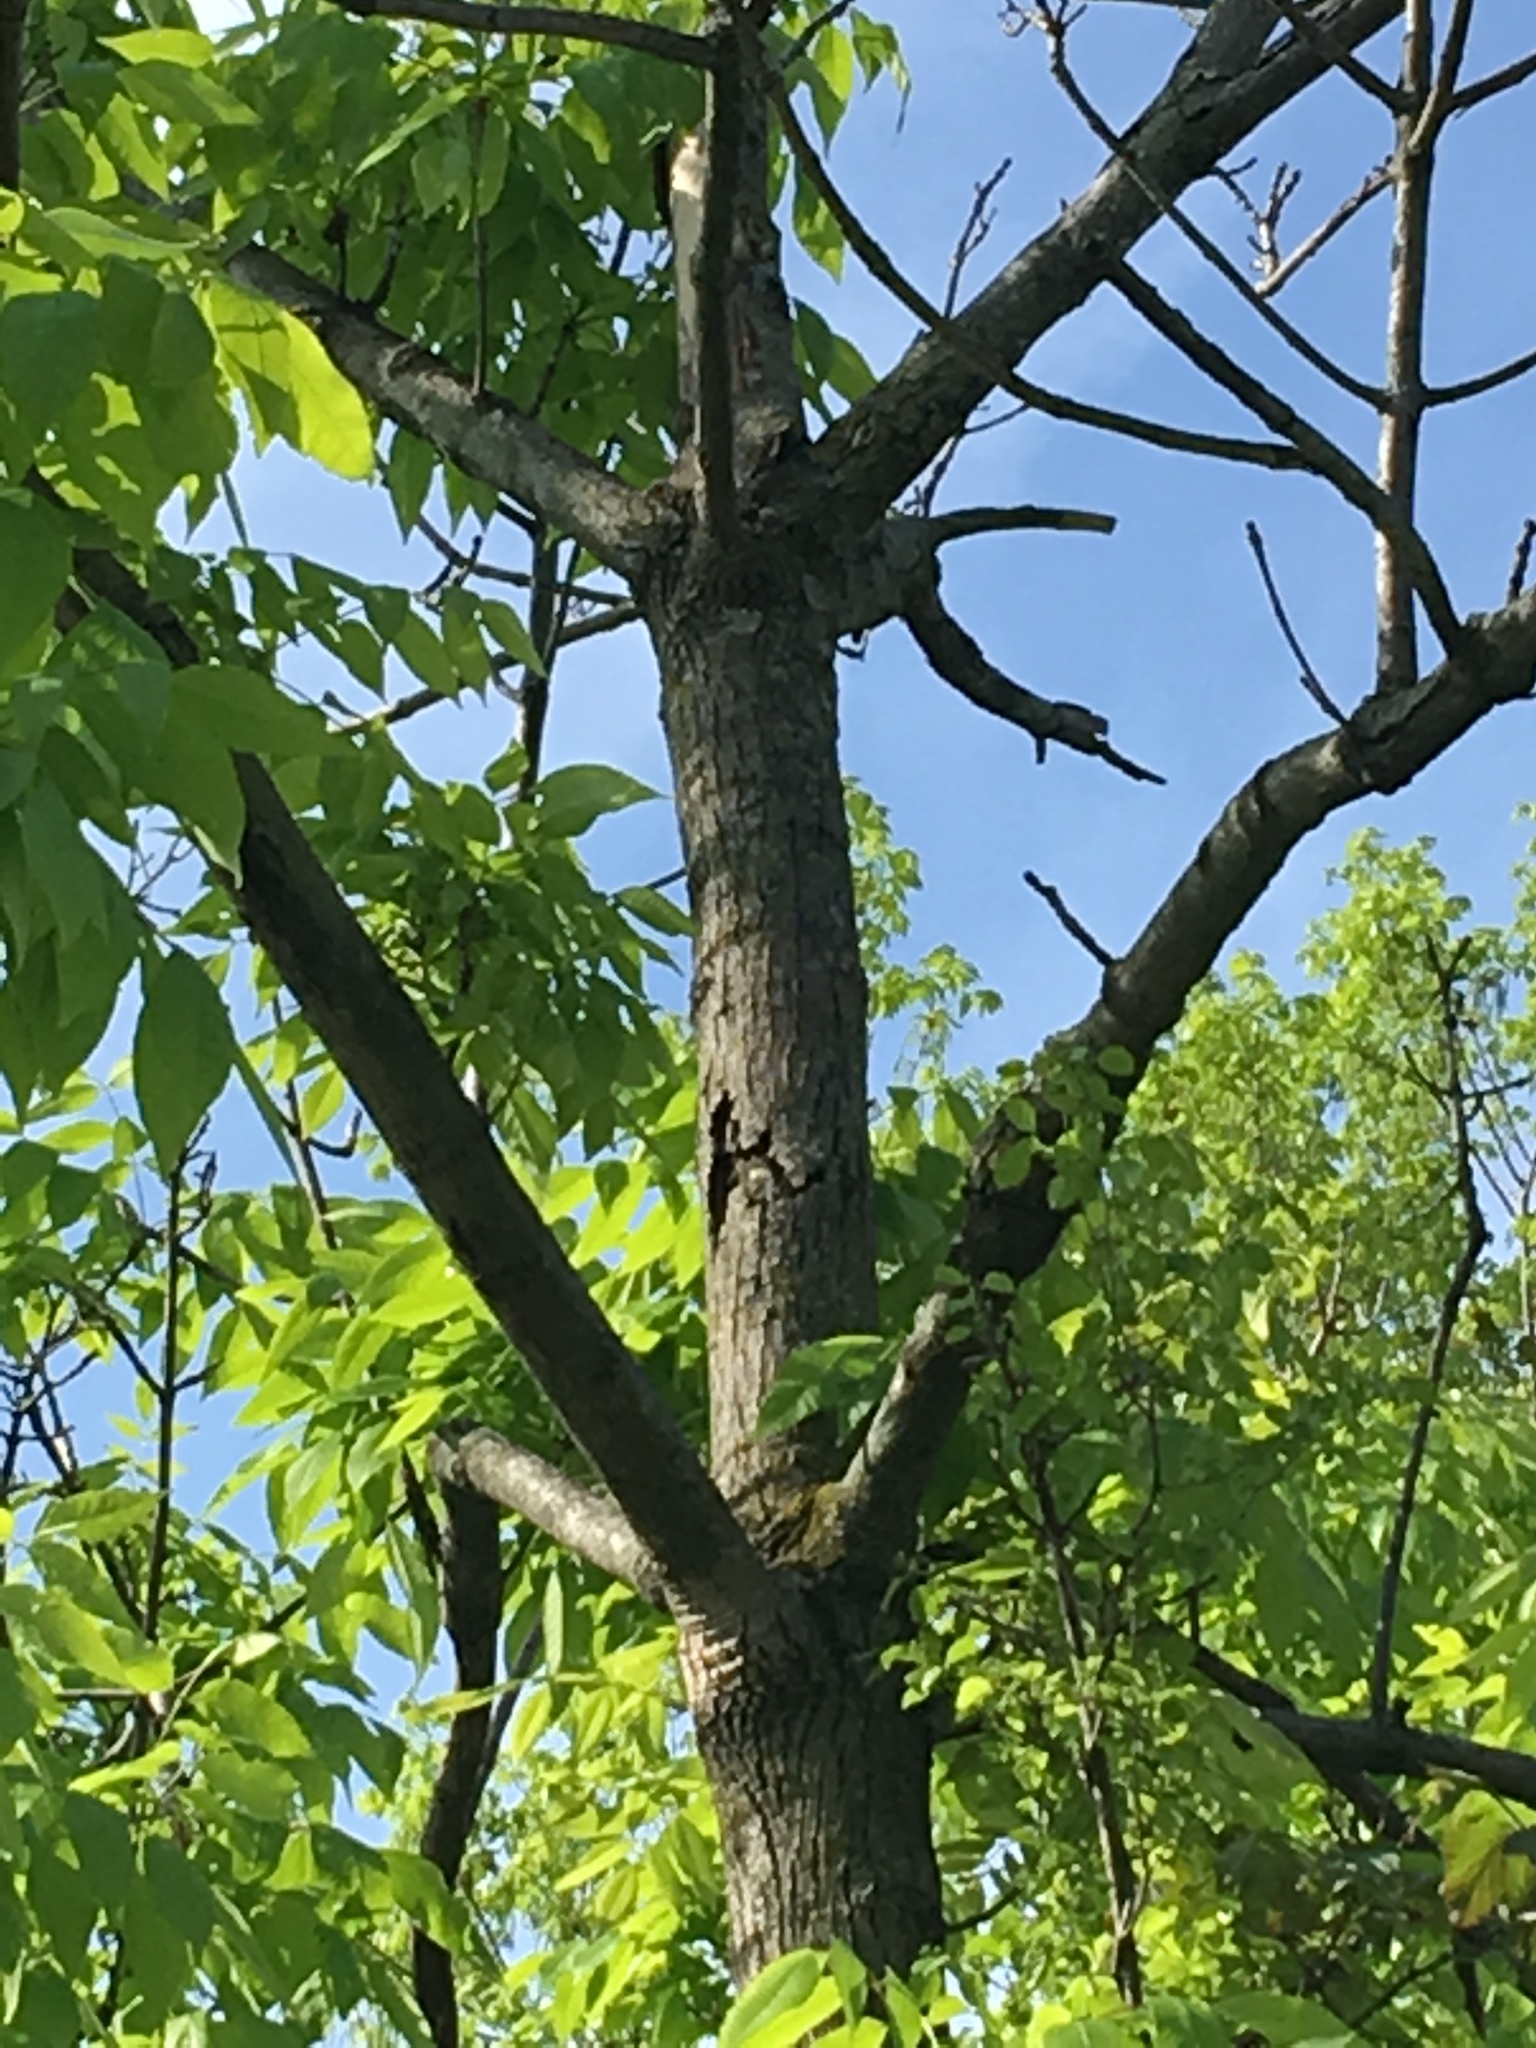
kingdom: Plantae
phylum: Tracheophyta
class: Magnoliopsida
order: Lamiales
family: Oleaceae
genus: Fraxinus
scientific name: Fraxinus americana
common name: White ash
